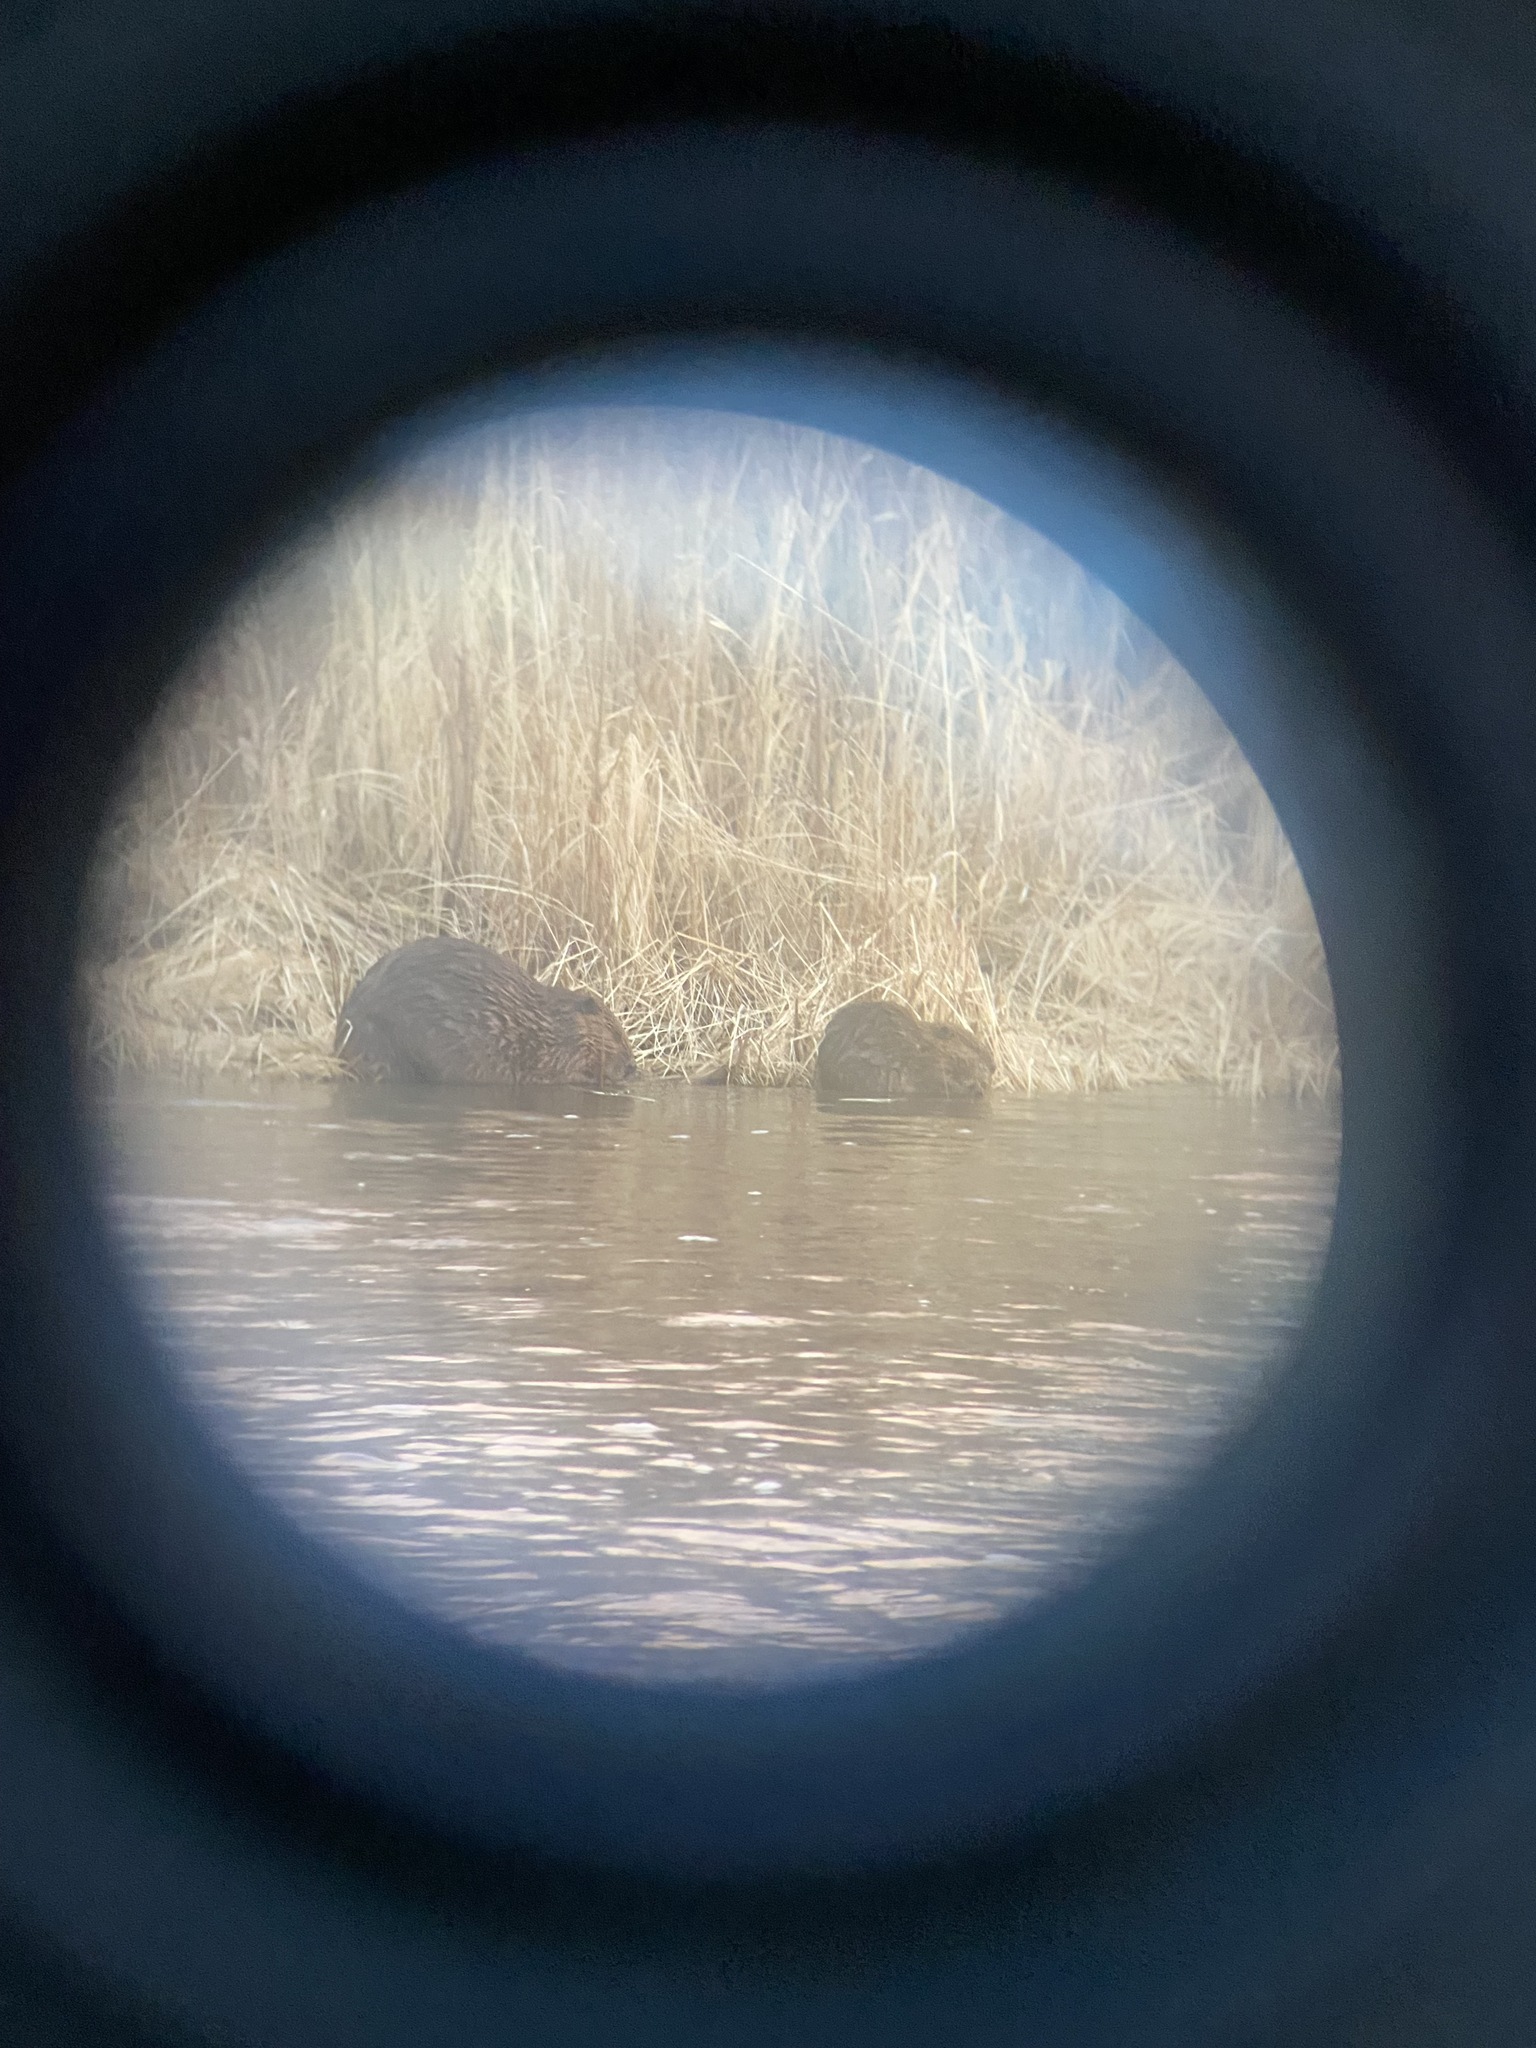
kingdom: Animalia
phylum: Chordata
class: Mammalia
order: Rodentia
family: Castoridae
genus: Castor
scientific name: Castor canadensis
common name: American beaver
